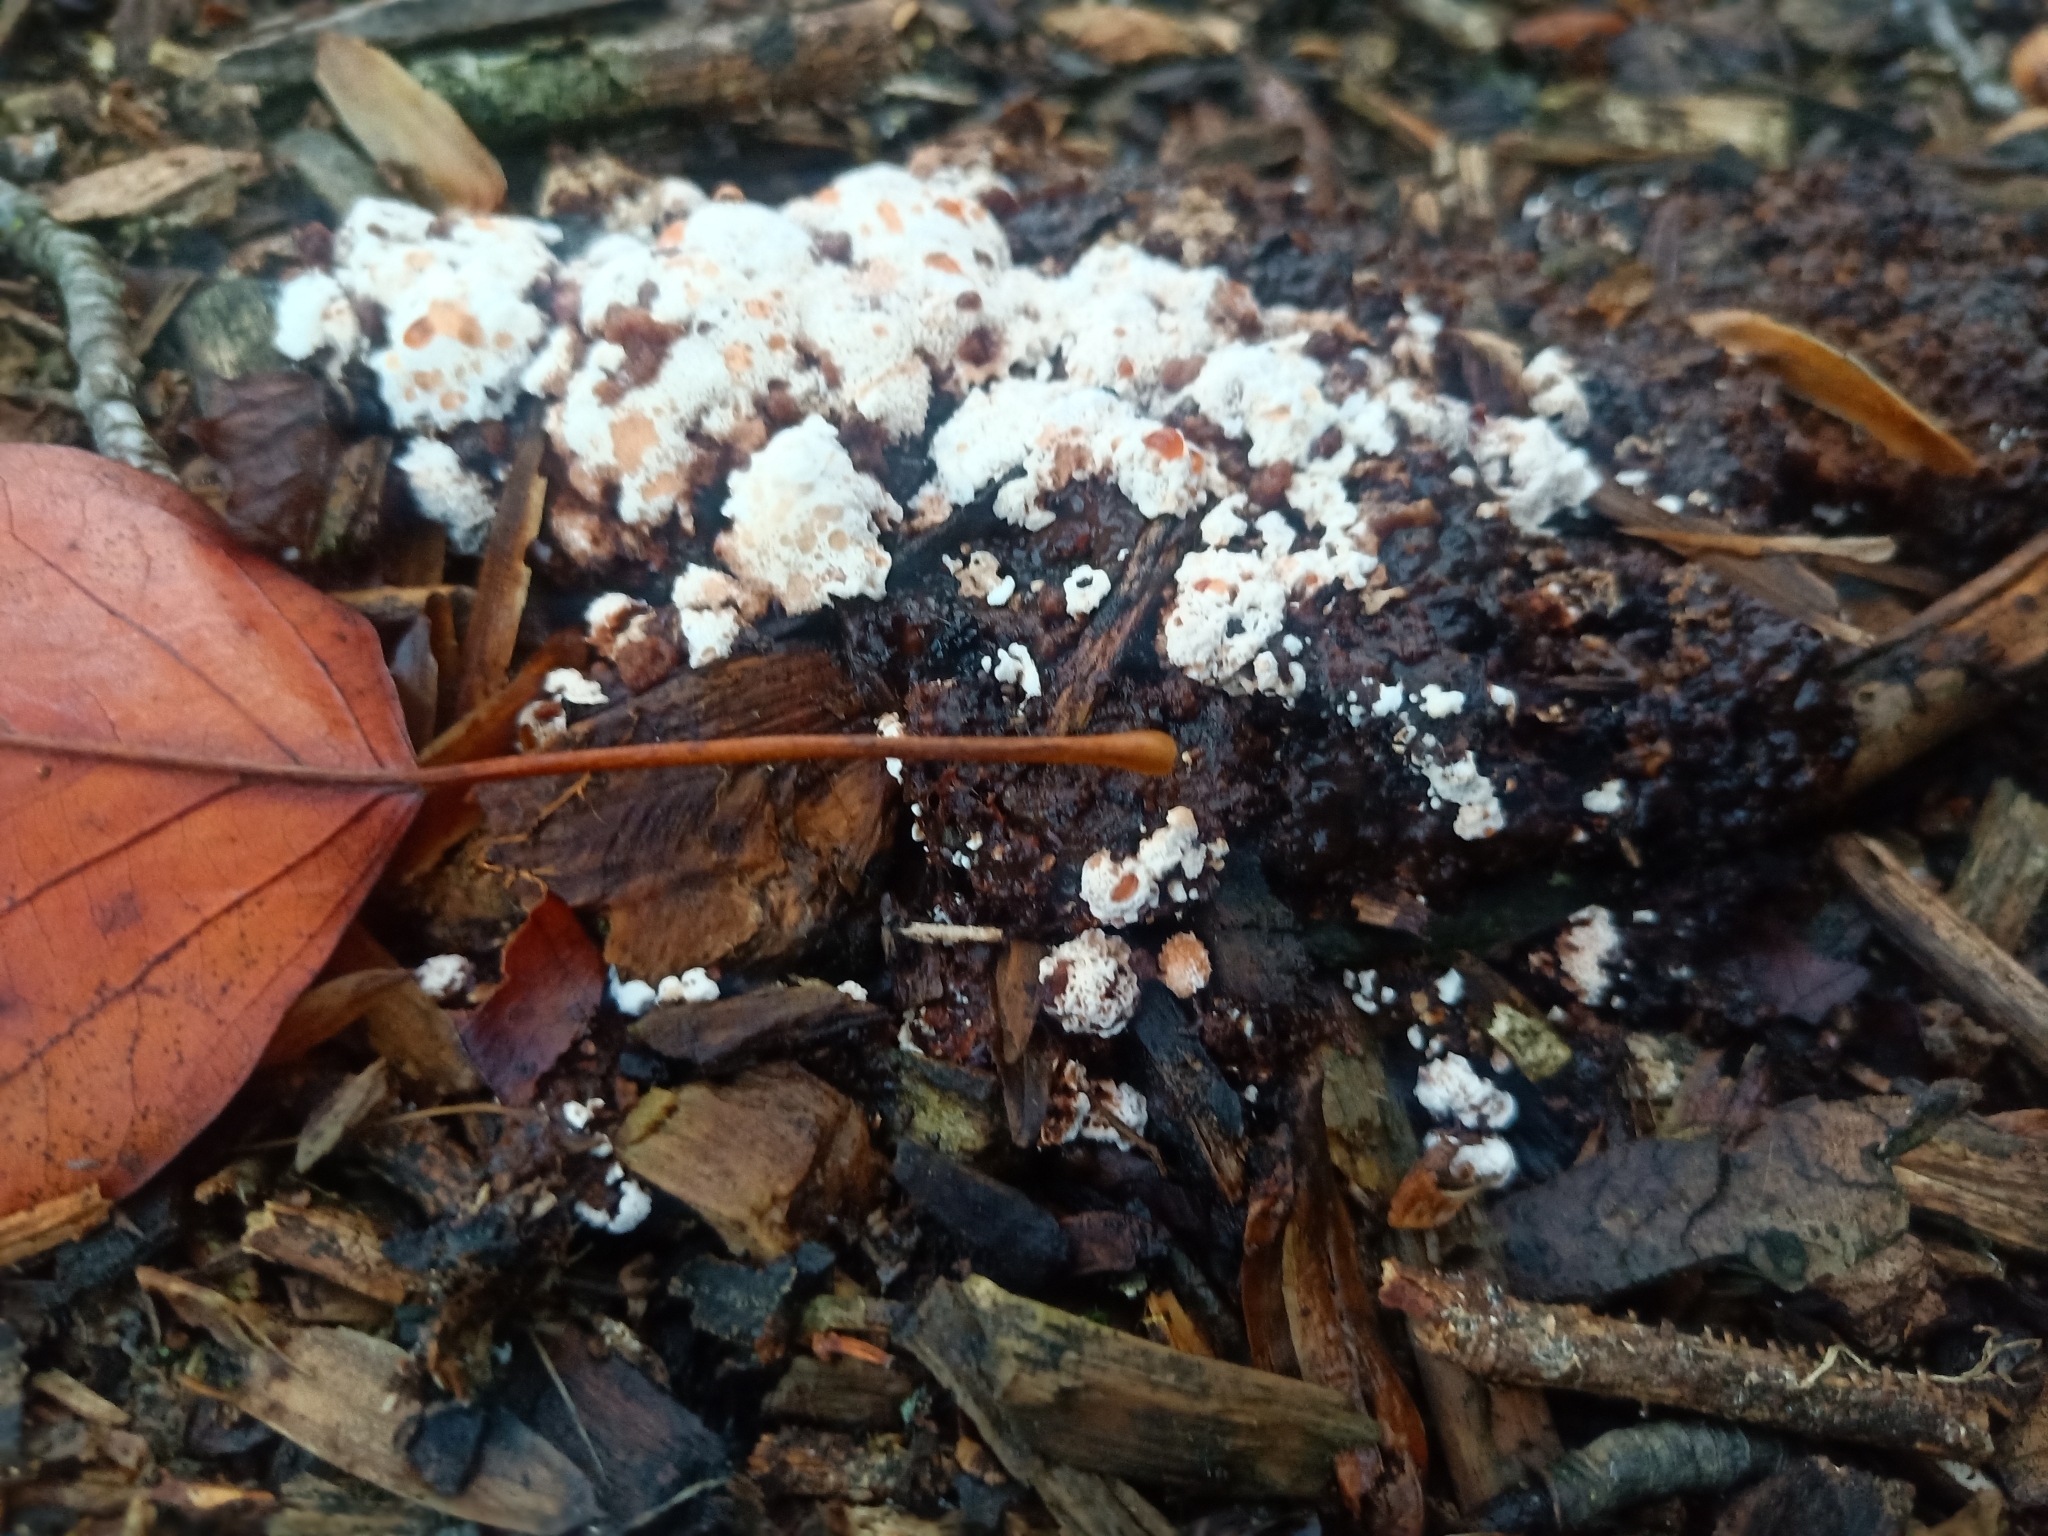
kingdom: Fungi
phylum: Basidiomycota
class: Agaricomycetes
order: Polyporales
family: Podoscyphaceae
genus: Abortiporus
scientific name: Abortiporus biennis
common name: Blushing rosette
